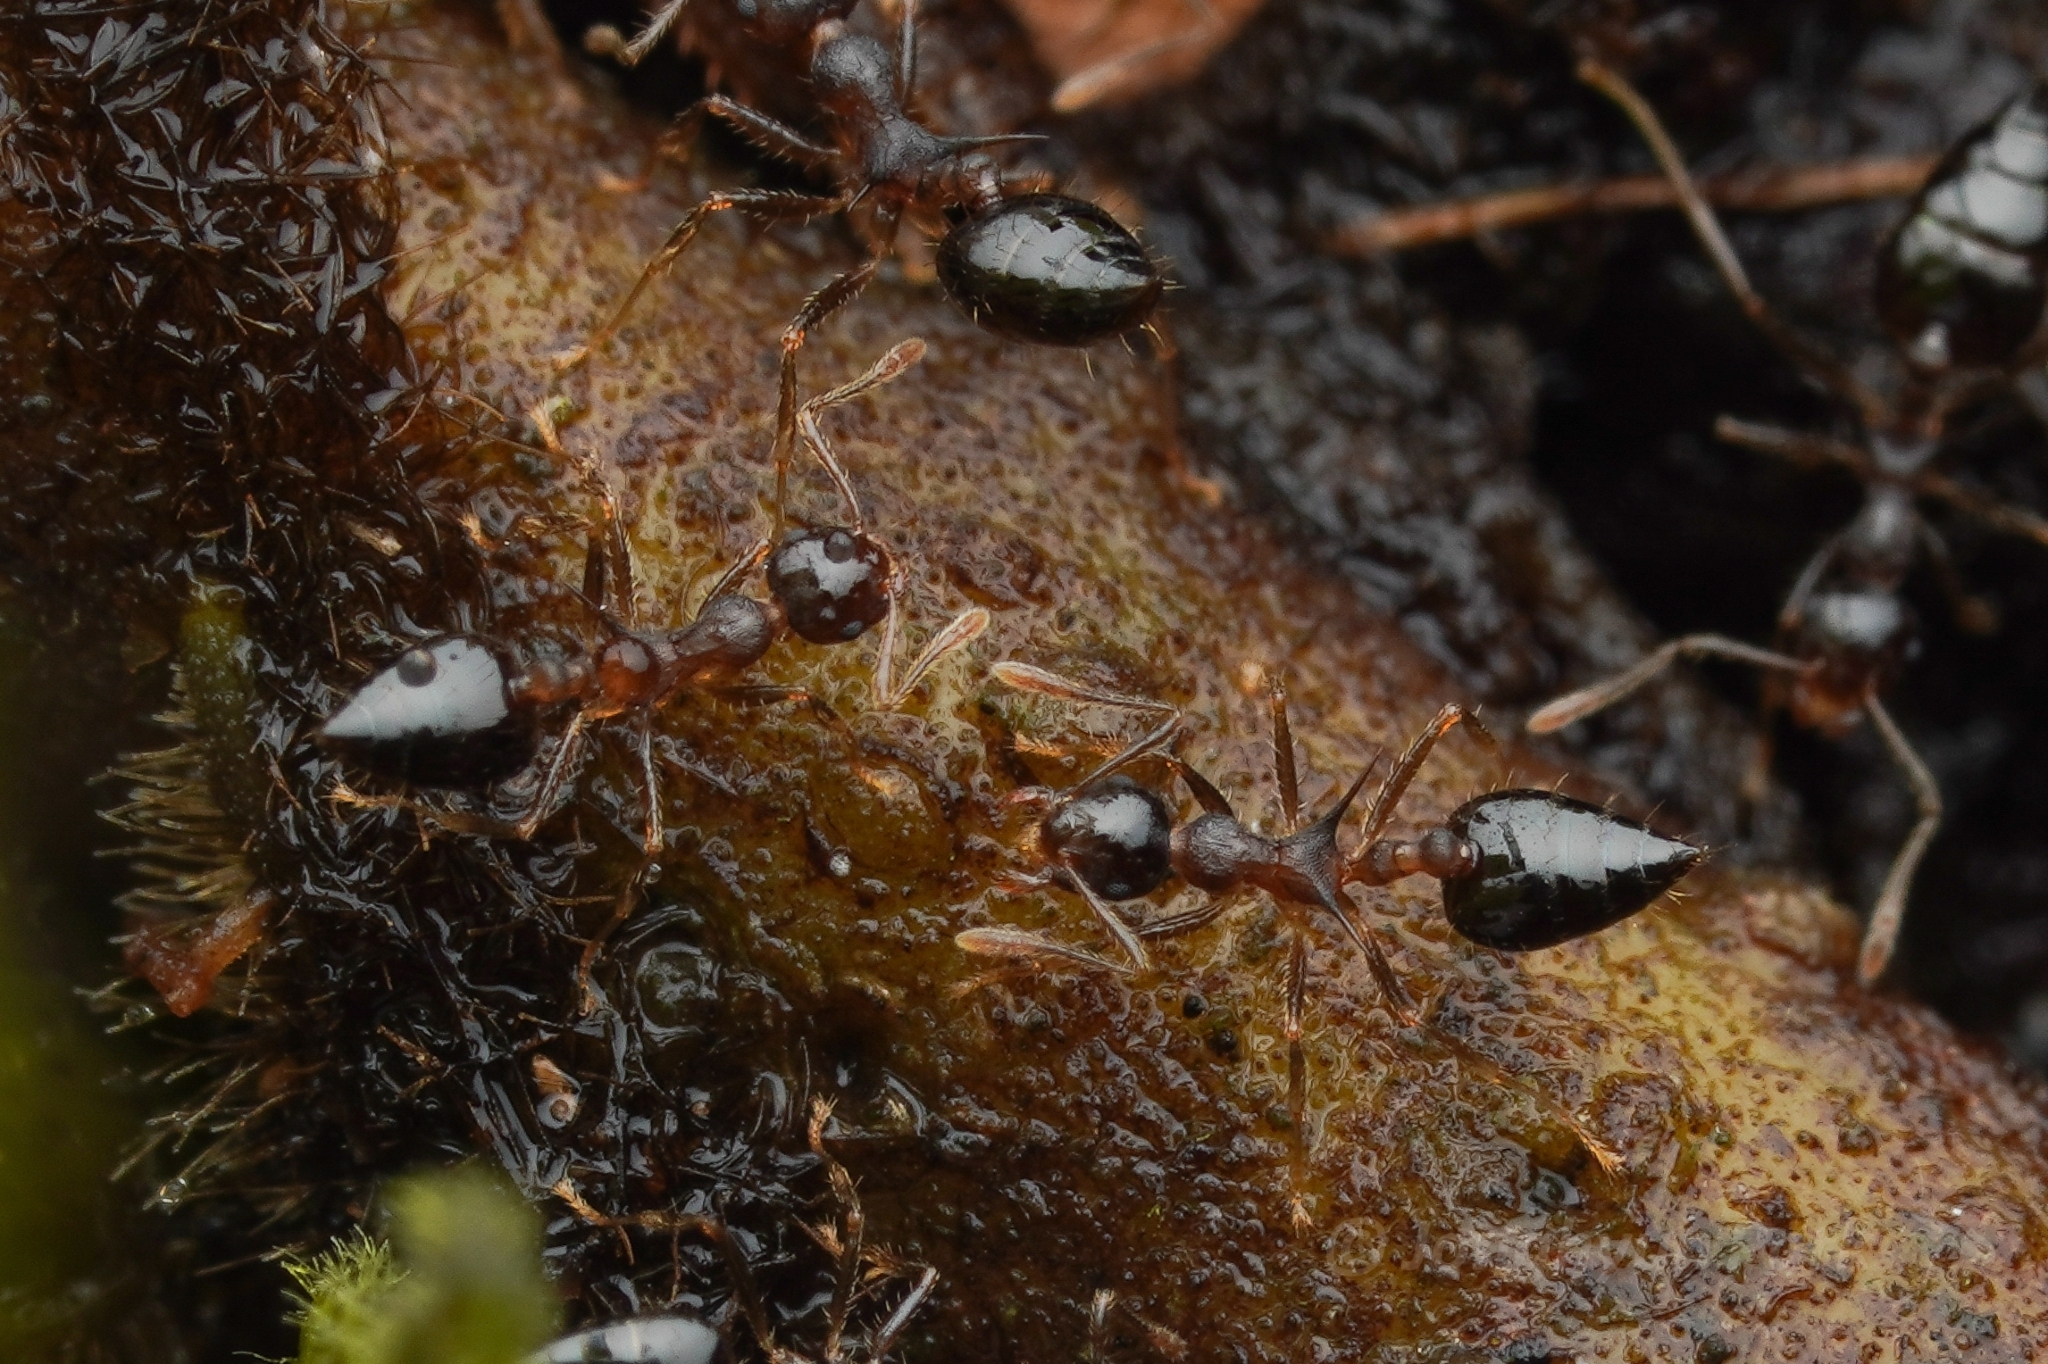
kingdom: Animalia
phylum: Arthropoda
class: Insecta
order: Hymenoptera
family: Formicidae
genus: Crematogaster
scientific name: Crematogaster macracantha
